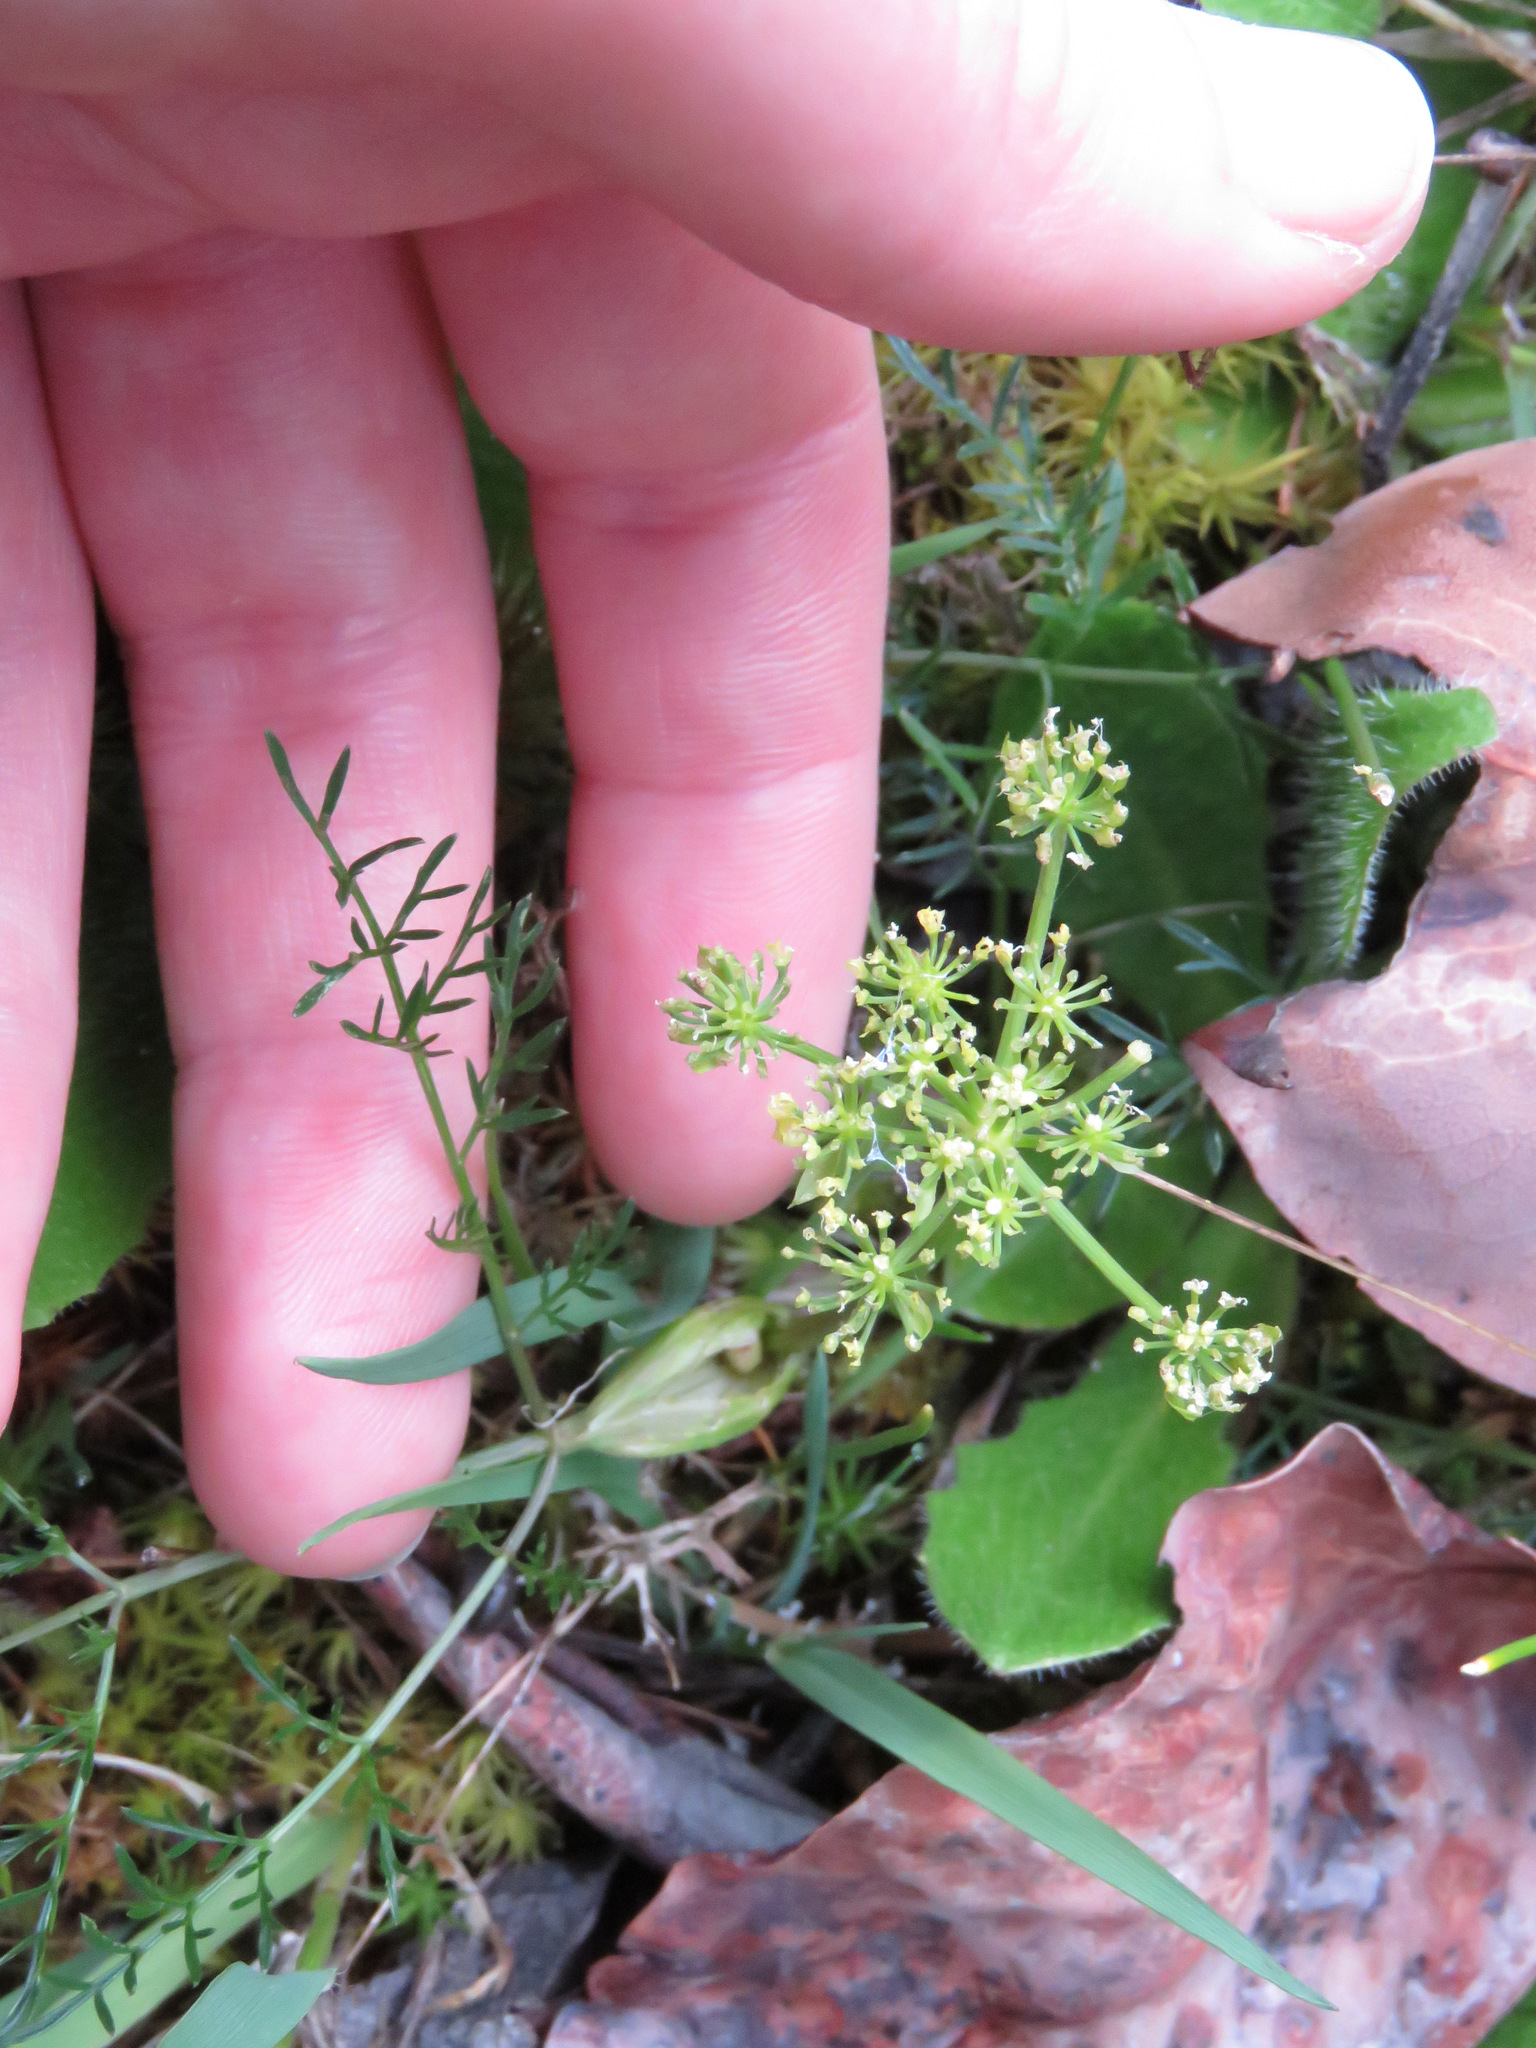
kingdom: Plantae
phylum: Tracheophyta
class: Magnoliopsida
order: Apiales
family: Apiaceae
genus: Lomatium
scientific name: Lomatium utriculatum
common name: Fine-leaf desert-parsley
